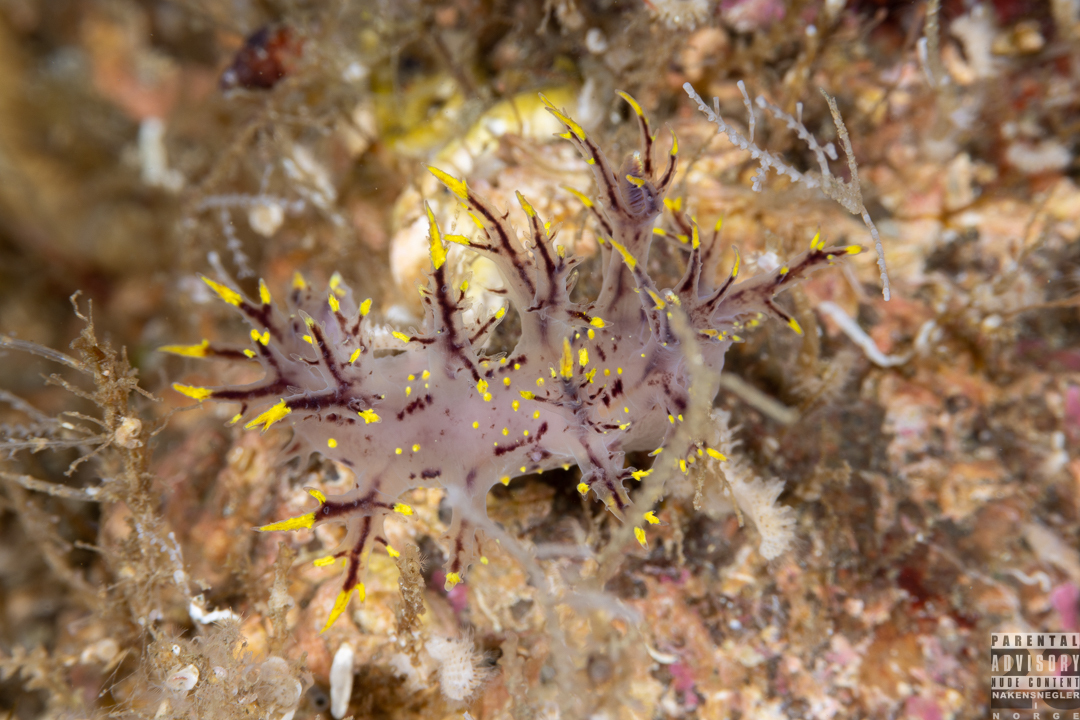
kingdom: Animalia
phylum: Mollusca
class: Gastropoda
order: Nudibranchia
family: Dendronotidae
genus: Dendronotus
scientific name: Dendronotus arcticus
